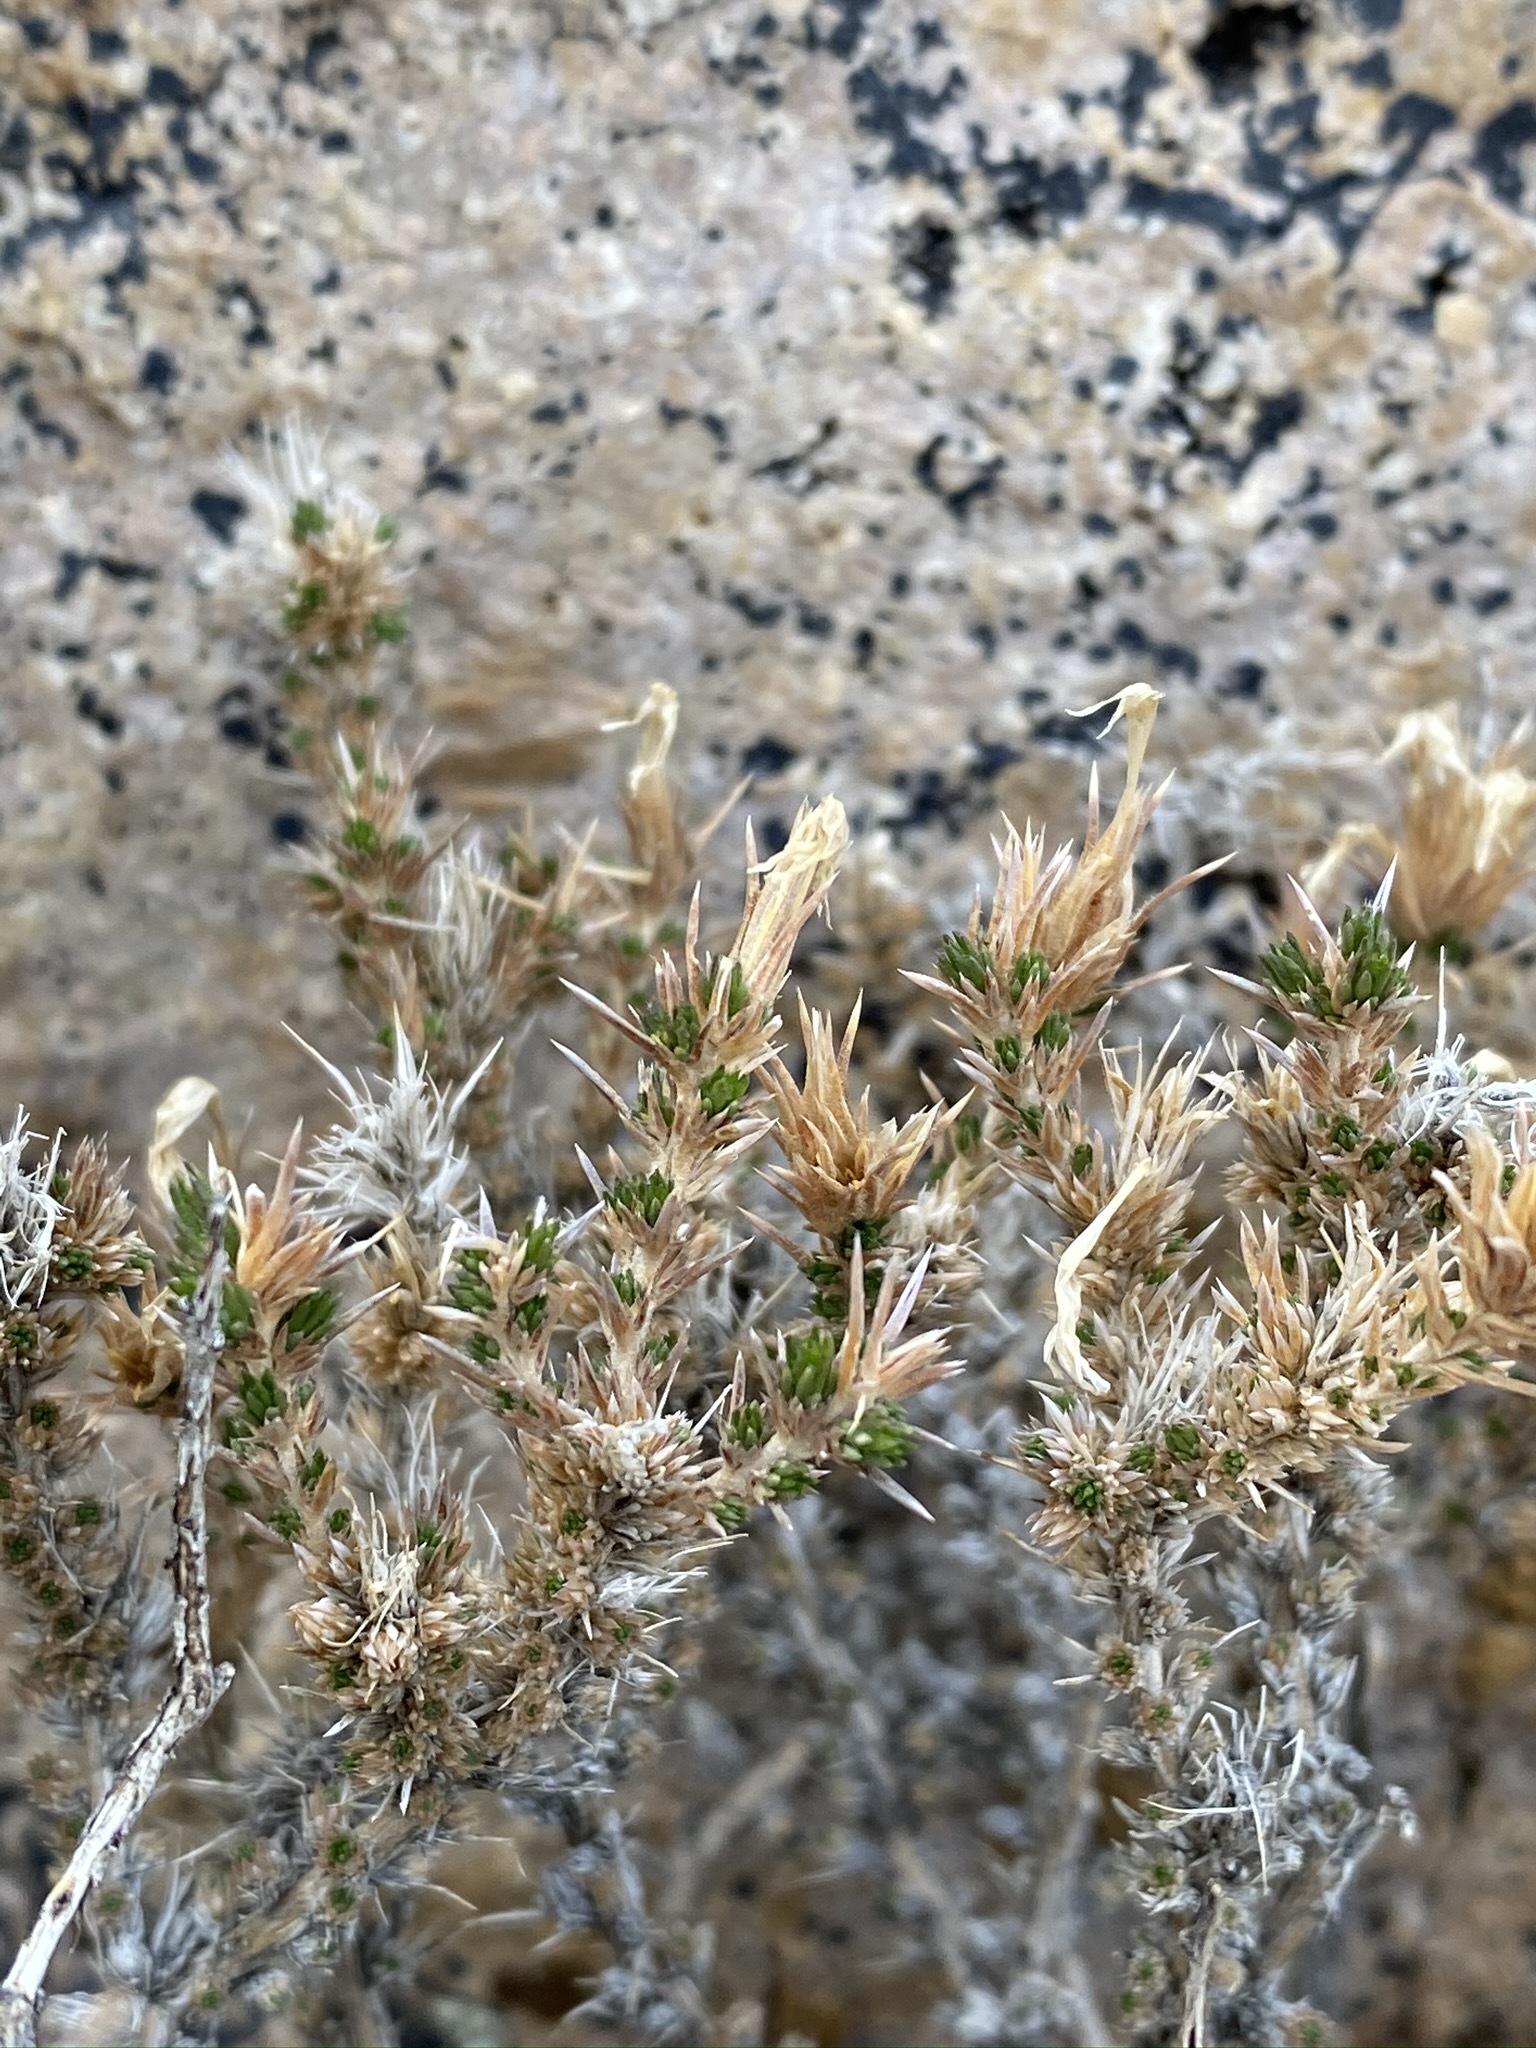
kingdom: Plantae
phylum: Tracheophyta
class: Magnoliopsida
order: Ericales
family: Polemoniaceae
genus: Linanthus
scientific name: Linanthus pungens
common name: Granite prickly phlox
